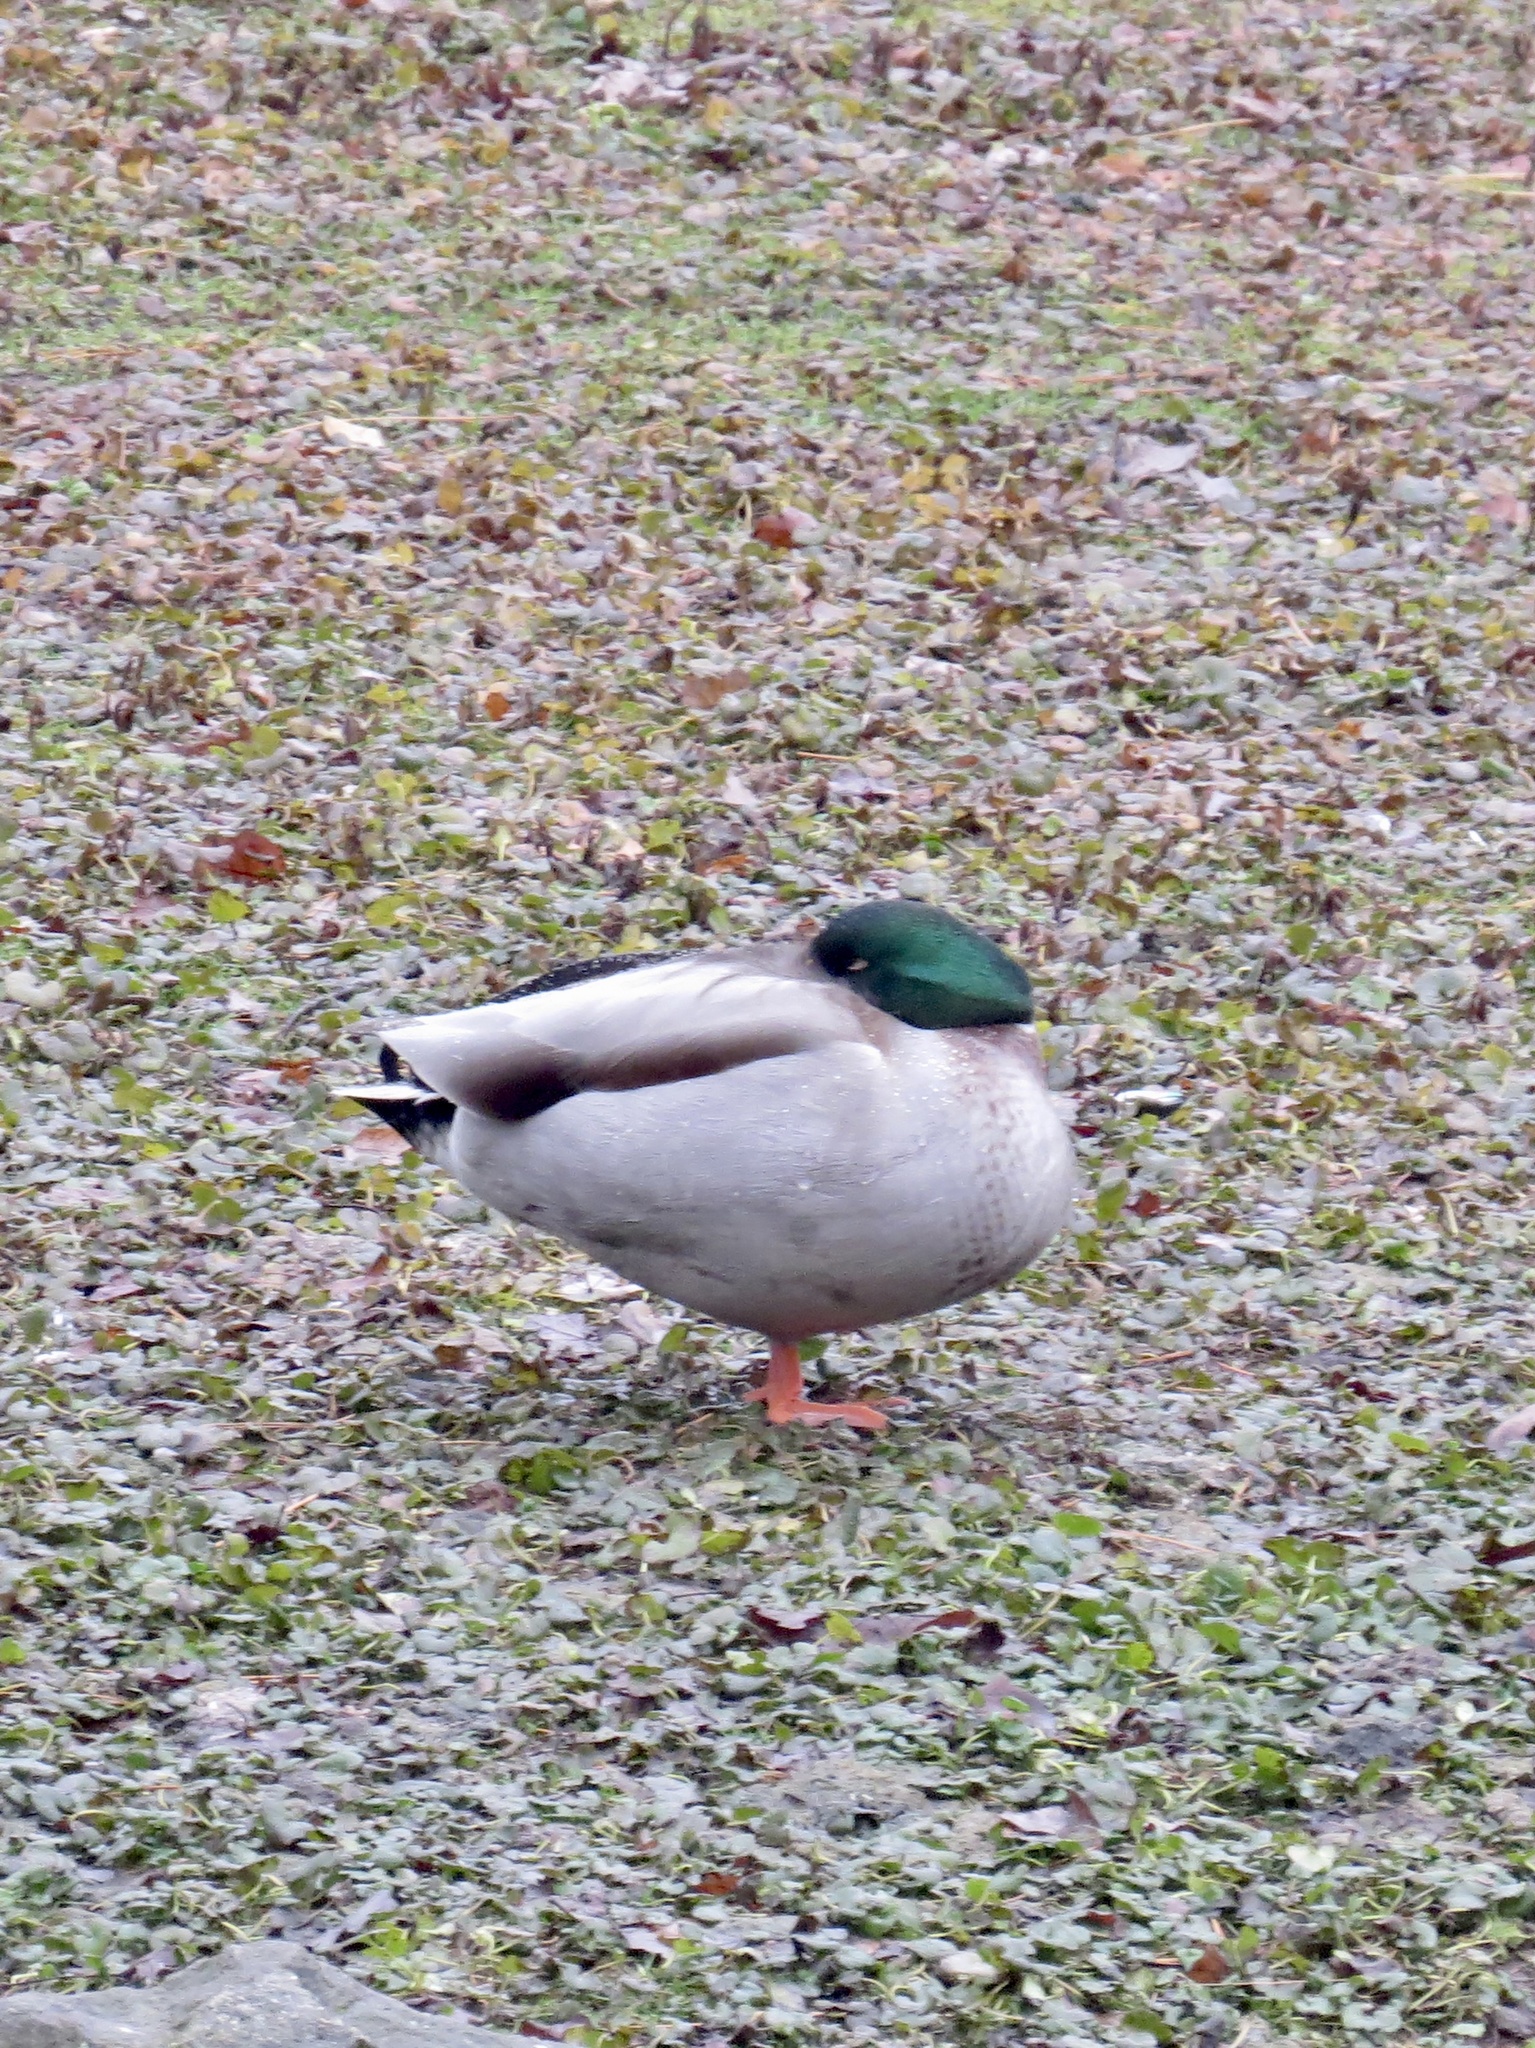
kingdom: Animalia
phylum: Chordata
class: Aves
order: Anseriformes
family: Anatidae
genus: Anas
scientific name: Anas platyrhynchos
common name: Mallard
